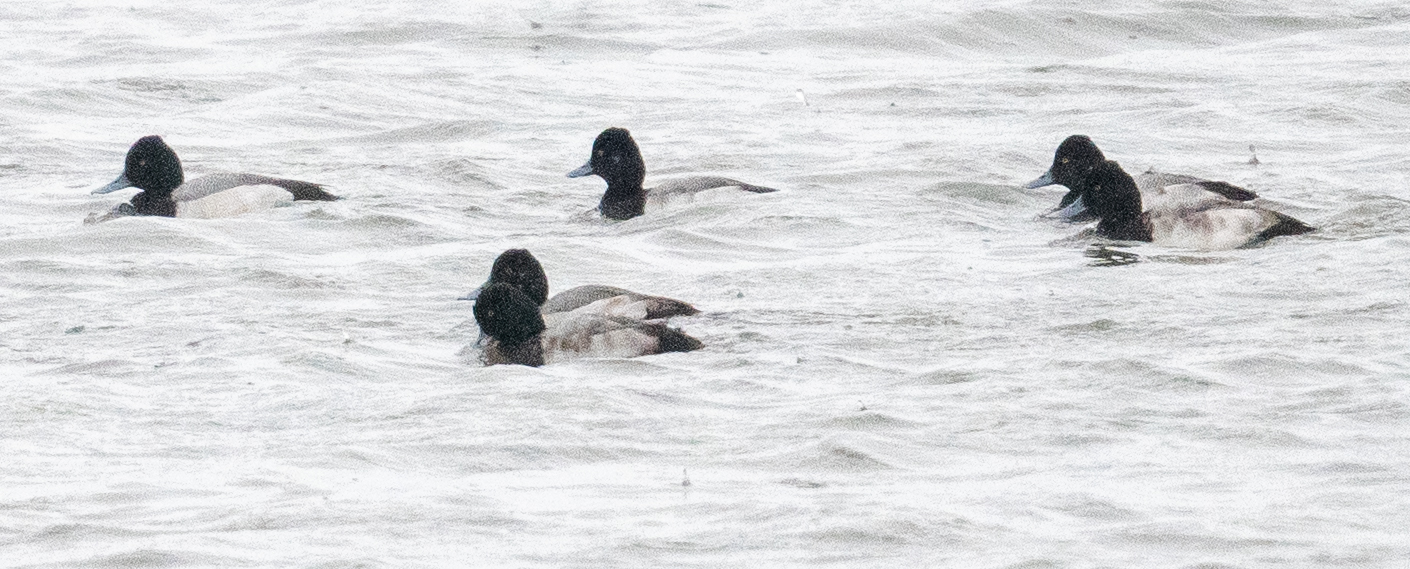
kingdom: Animalia
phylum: Chordata
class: Aves
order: Anseriformes
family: Anatidae
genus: Aythya
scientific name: Aythya affinis
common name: Lesser scaup
